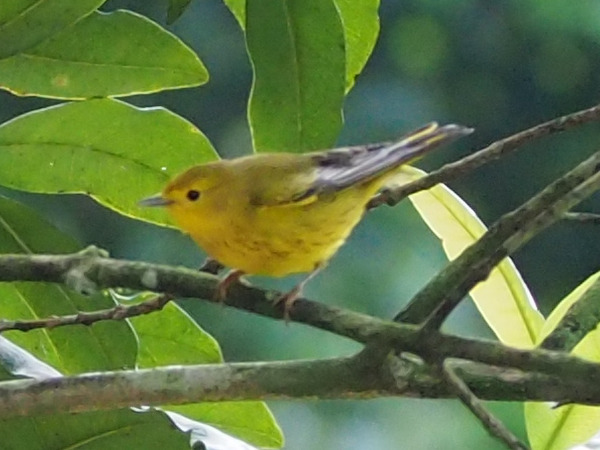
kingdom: Animalia
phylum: Chordata
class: Aves
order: Passeriformes
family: Parulidae
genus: Setophaga
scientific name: Setophaga petechia
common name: Yellow warbler
